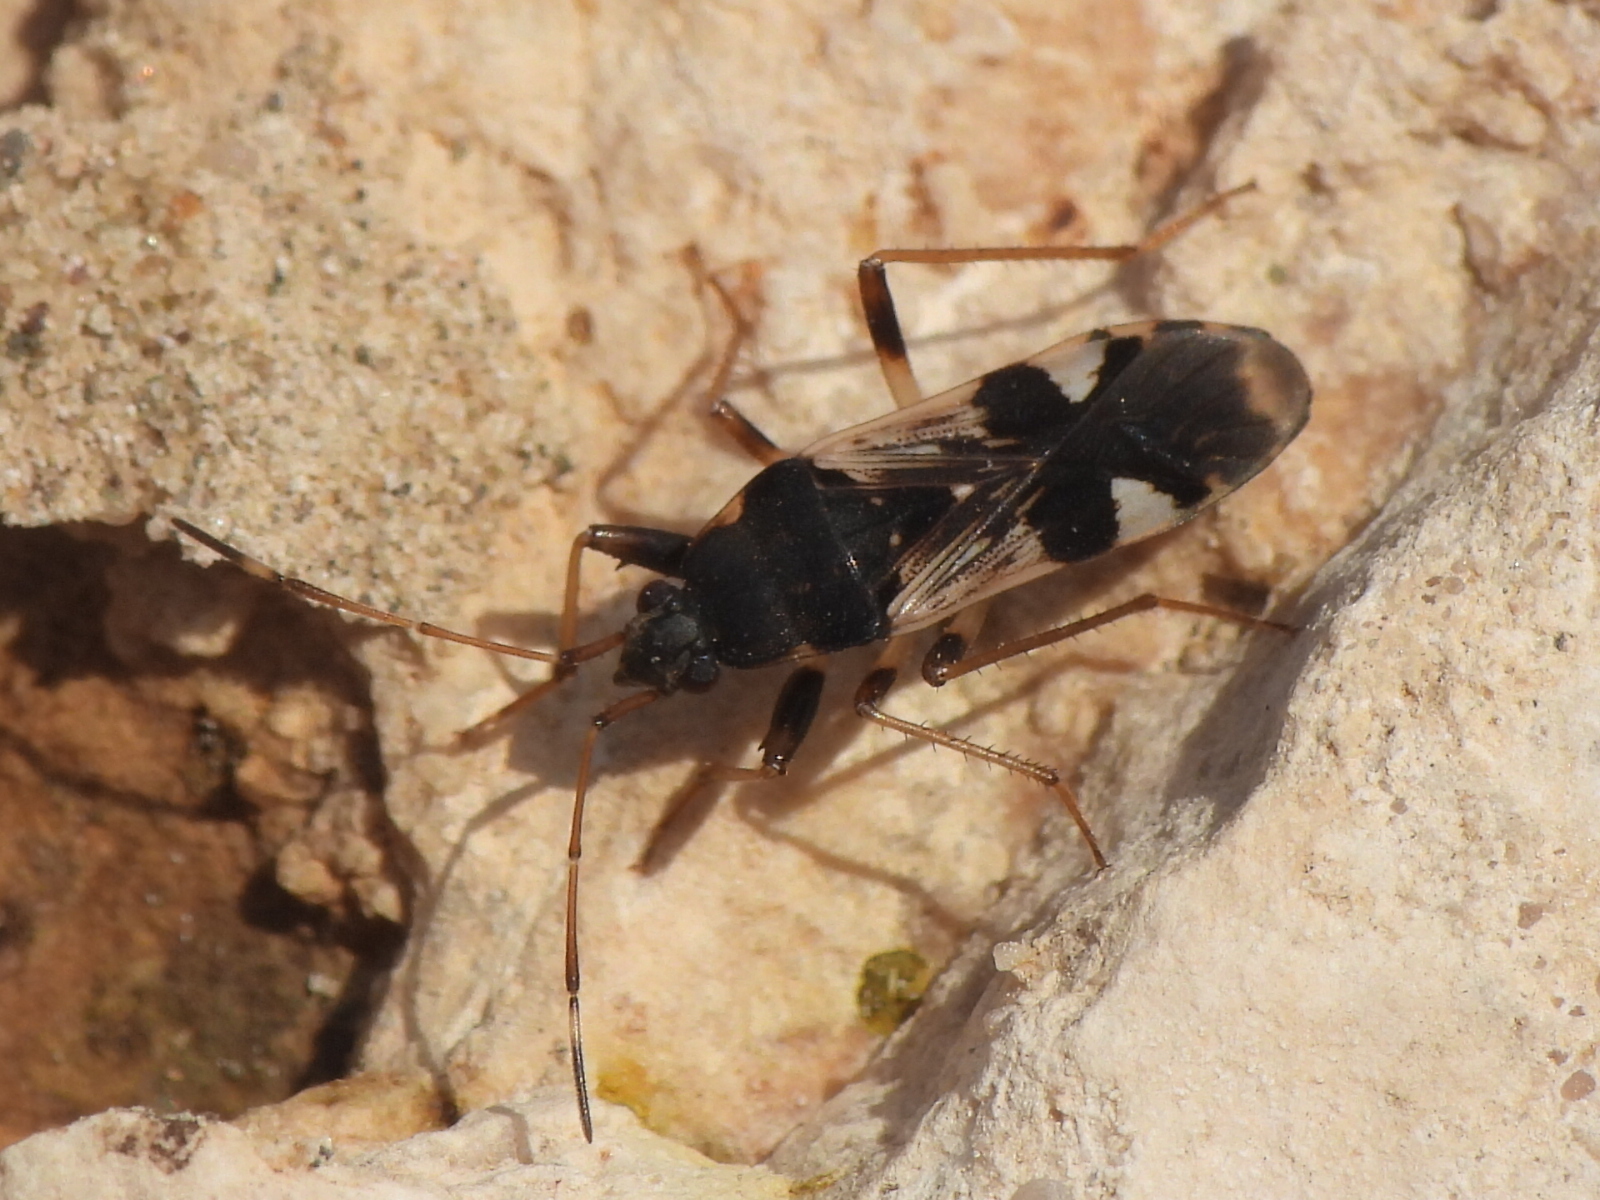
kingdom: Animalia
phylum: Arthropoda
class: Insecta
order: Hemiptera
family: Rhyparochromidae
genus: Dieuches
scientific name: Dieuches armipes
